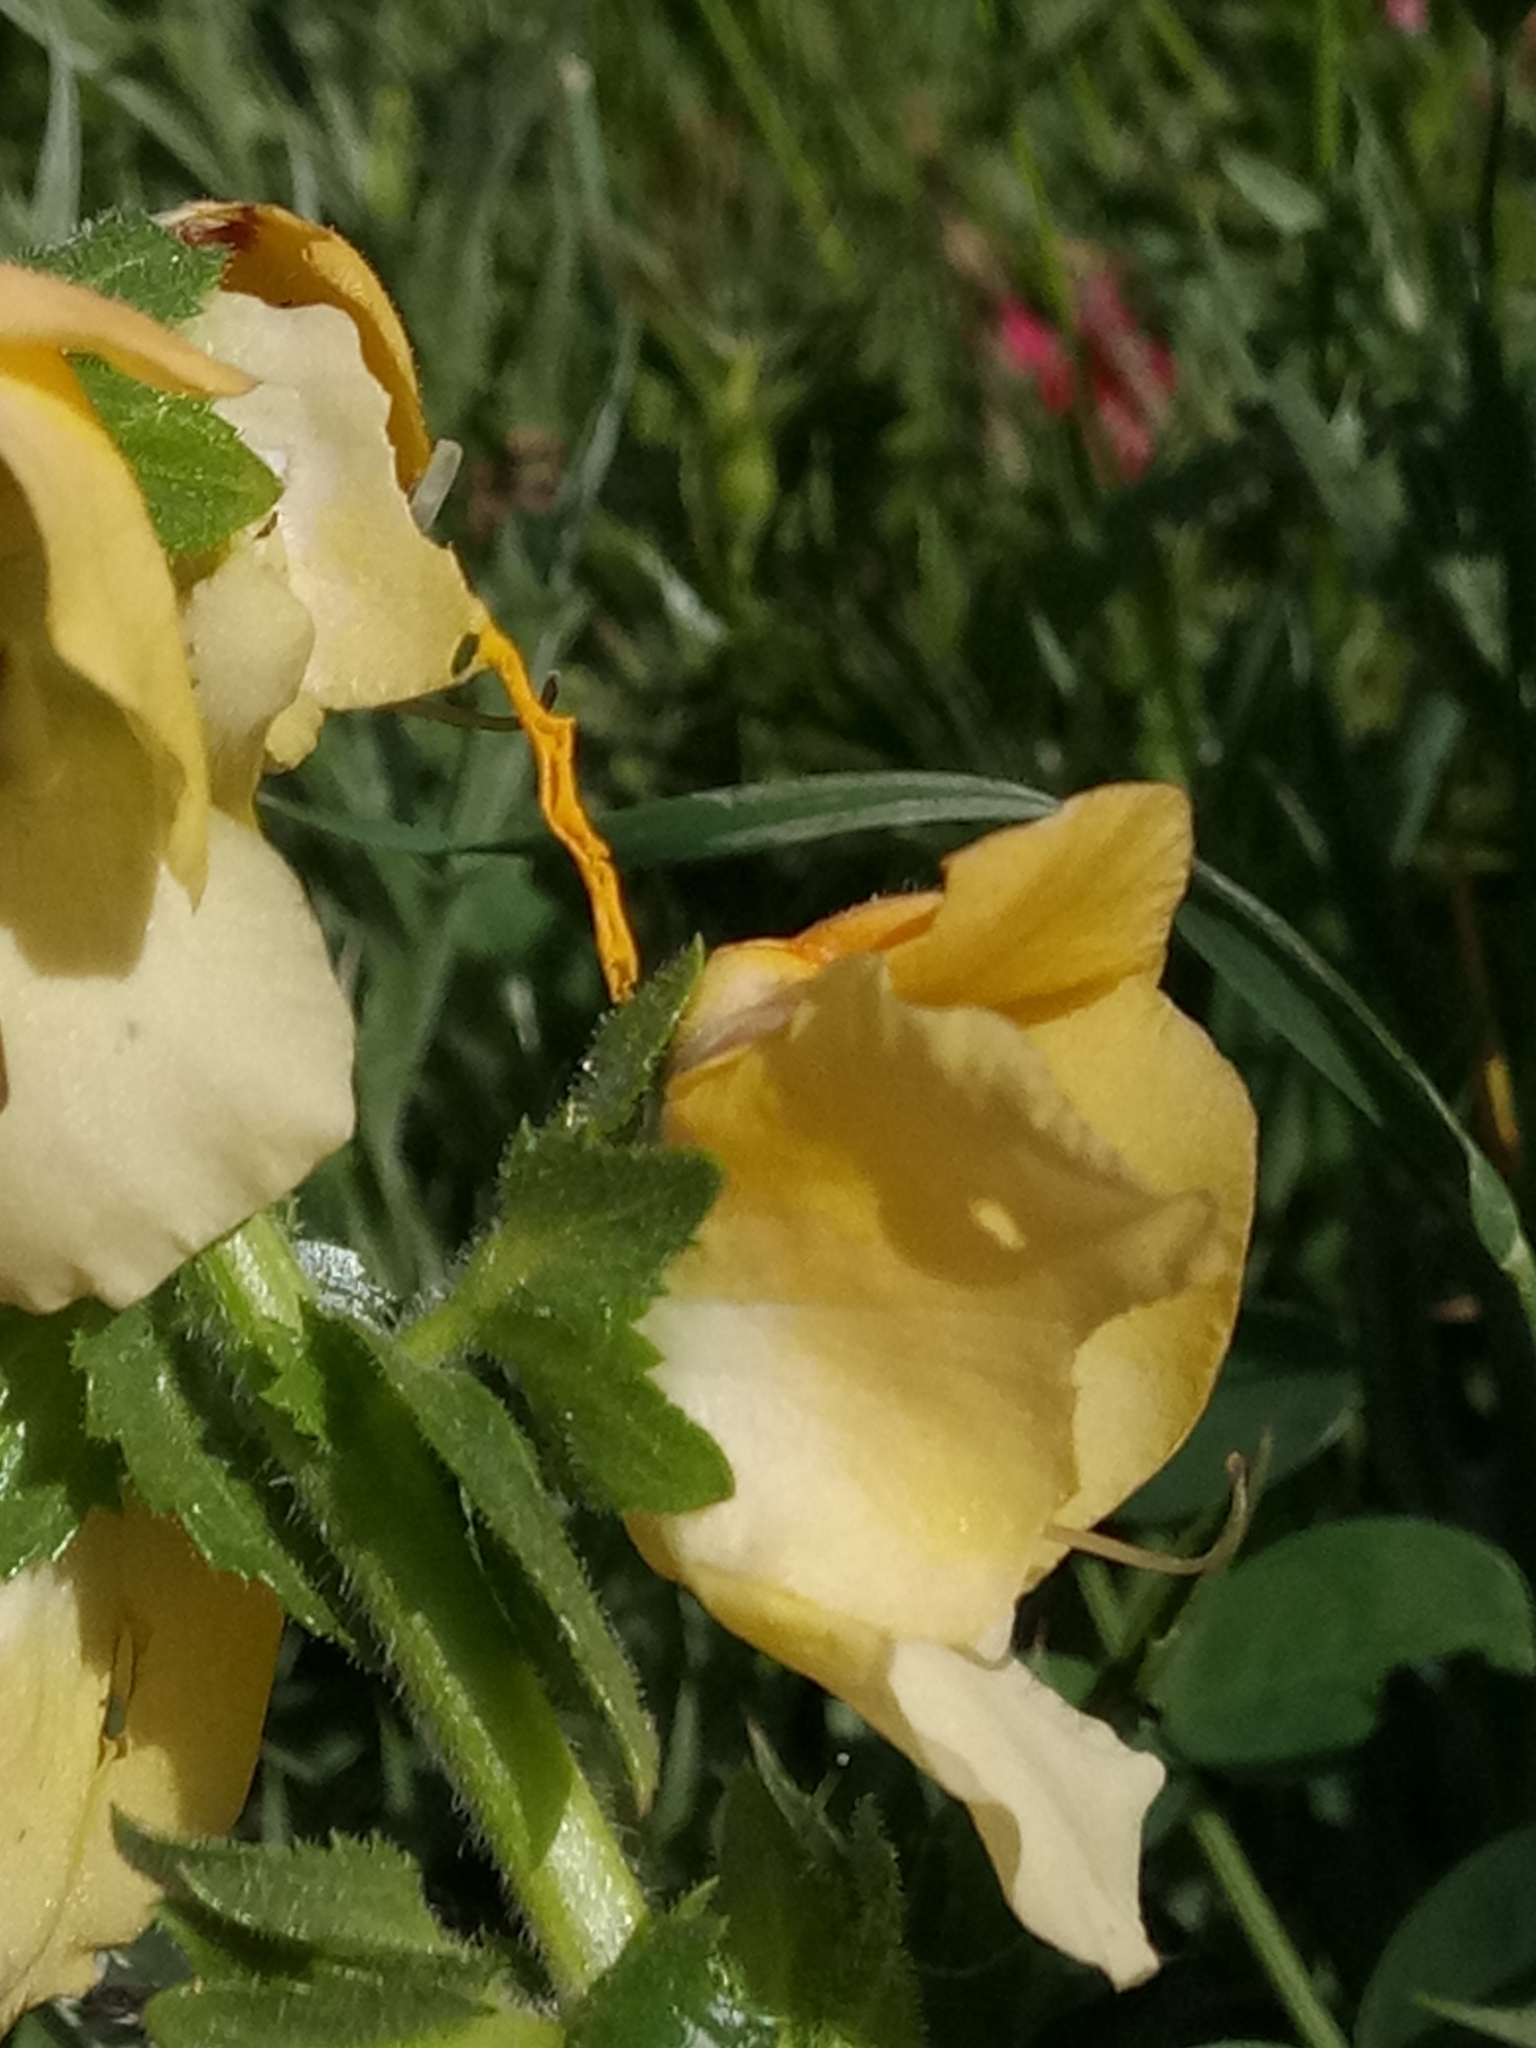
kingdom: Plantae
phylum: Tracheophyta
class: Magnoliopsida
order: Lamiales
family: Scrophulariaceae
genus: Verbascum
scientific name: Verbascum creticum
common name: Cretan mullein
